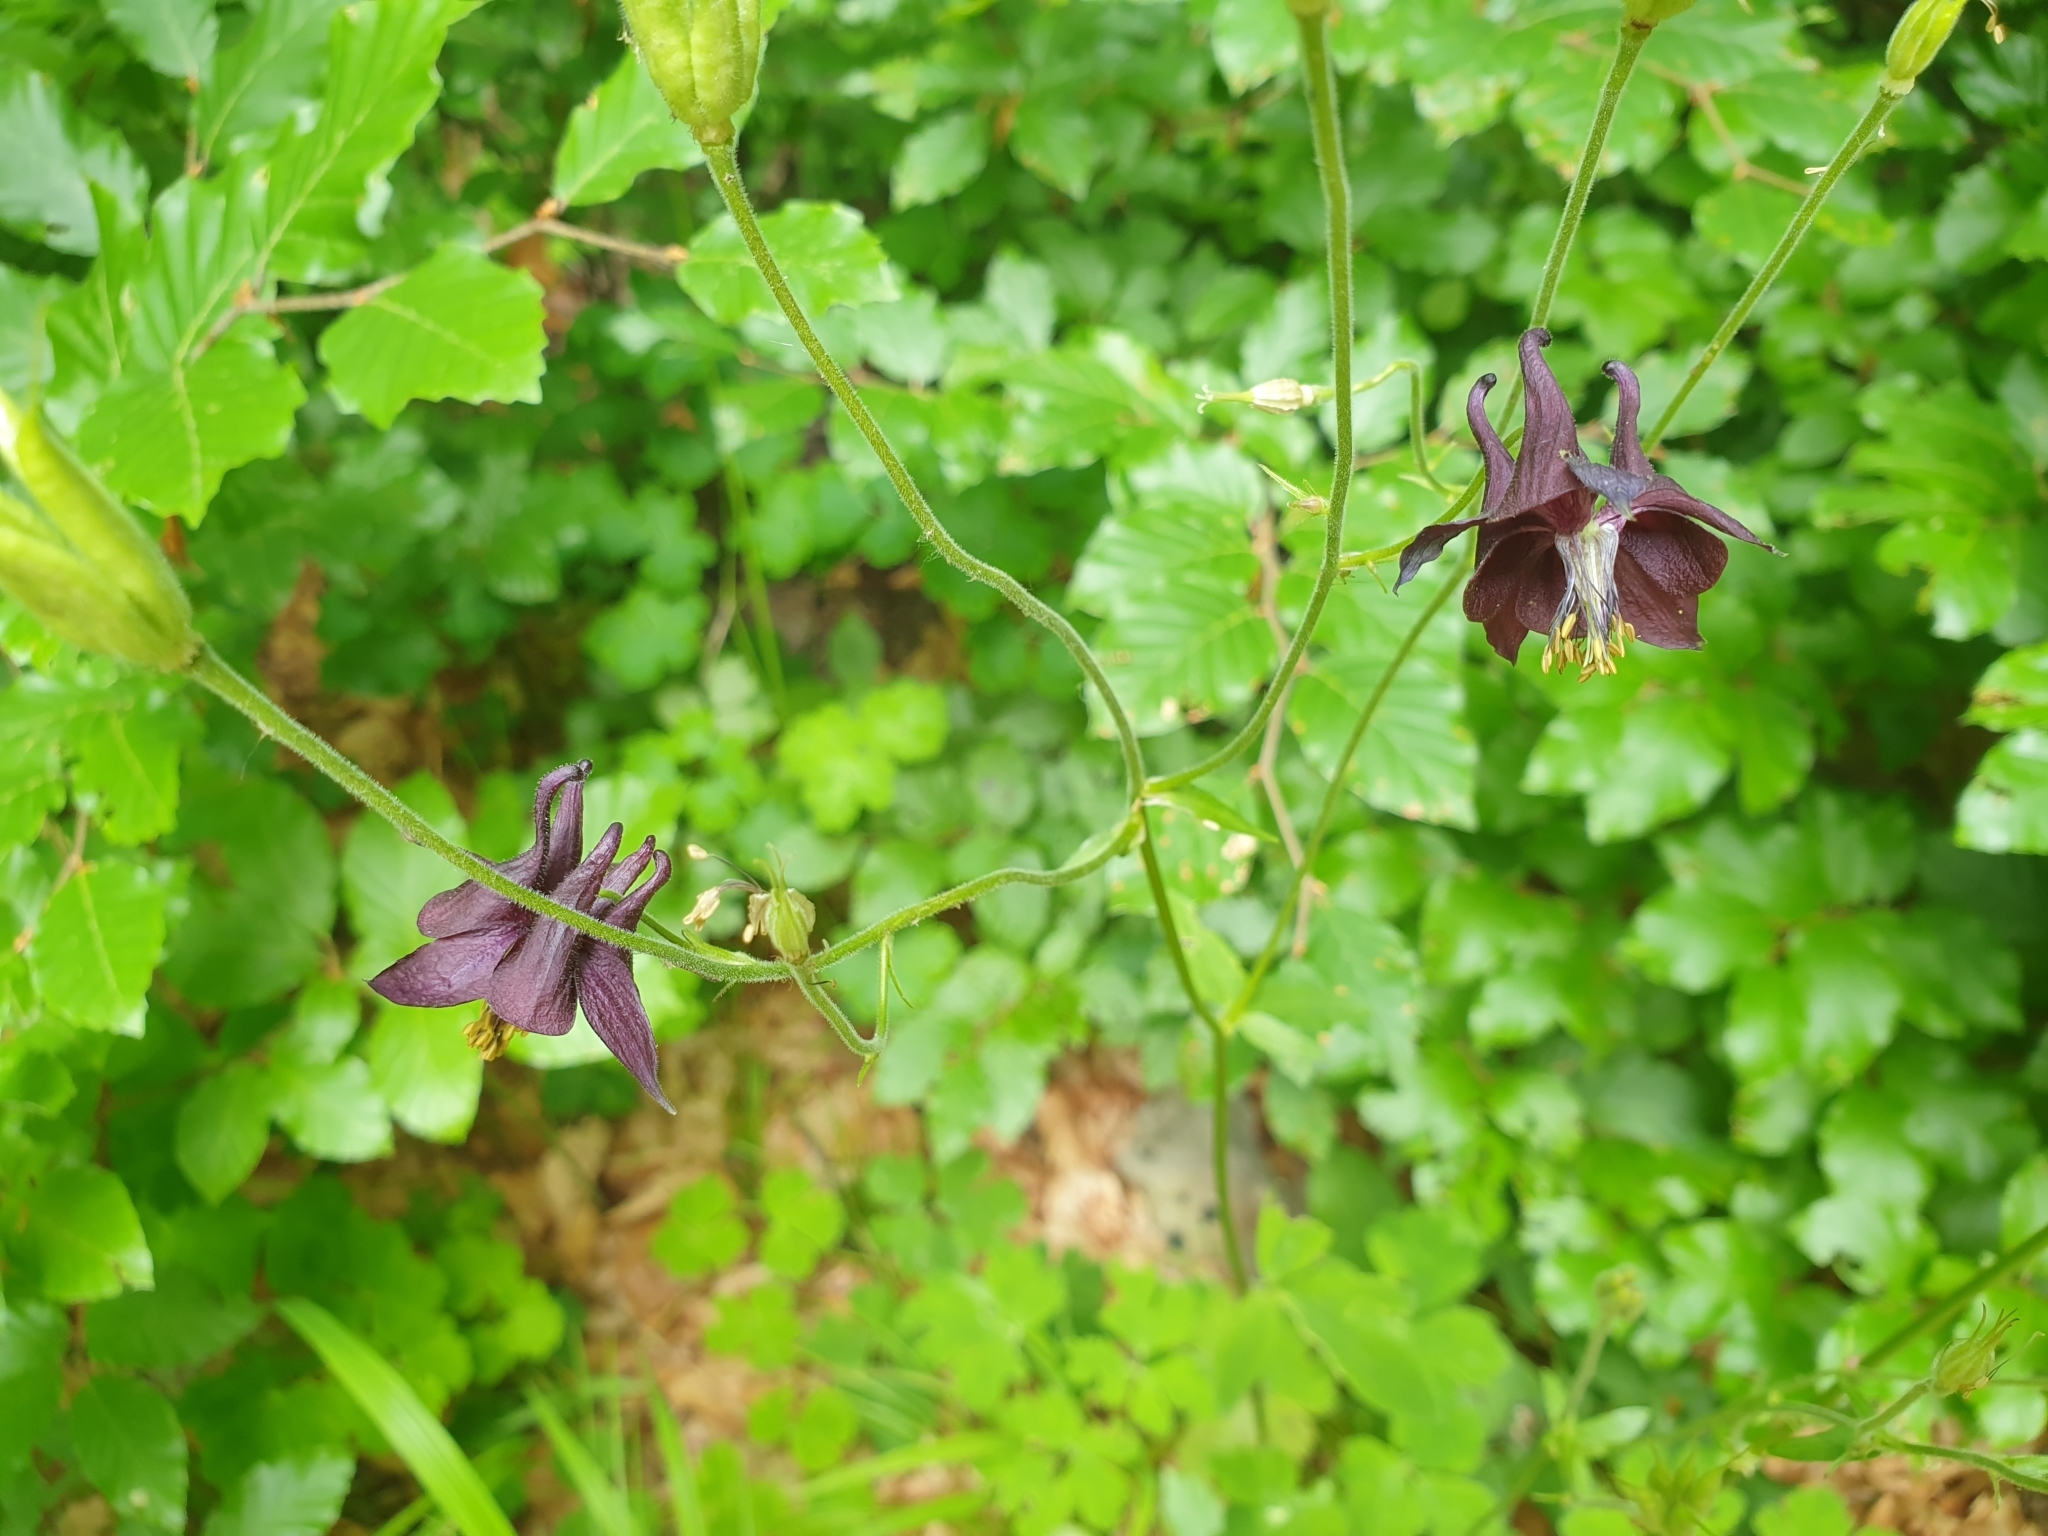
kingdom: Plantae
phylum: Tracheophyta
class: Magnoliopsida
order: Ranunculales
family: Ranunculaceae
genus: Aquilegia
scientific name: Aquilegia atrata
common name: Dark columbine
